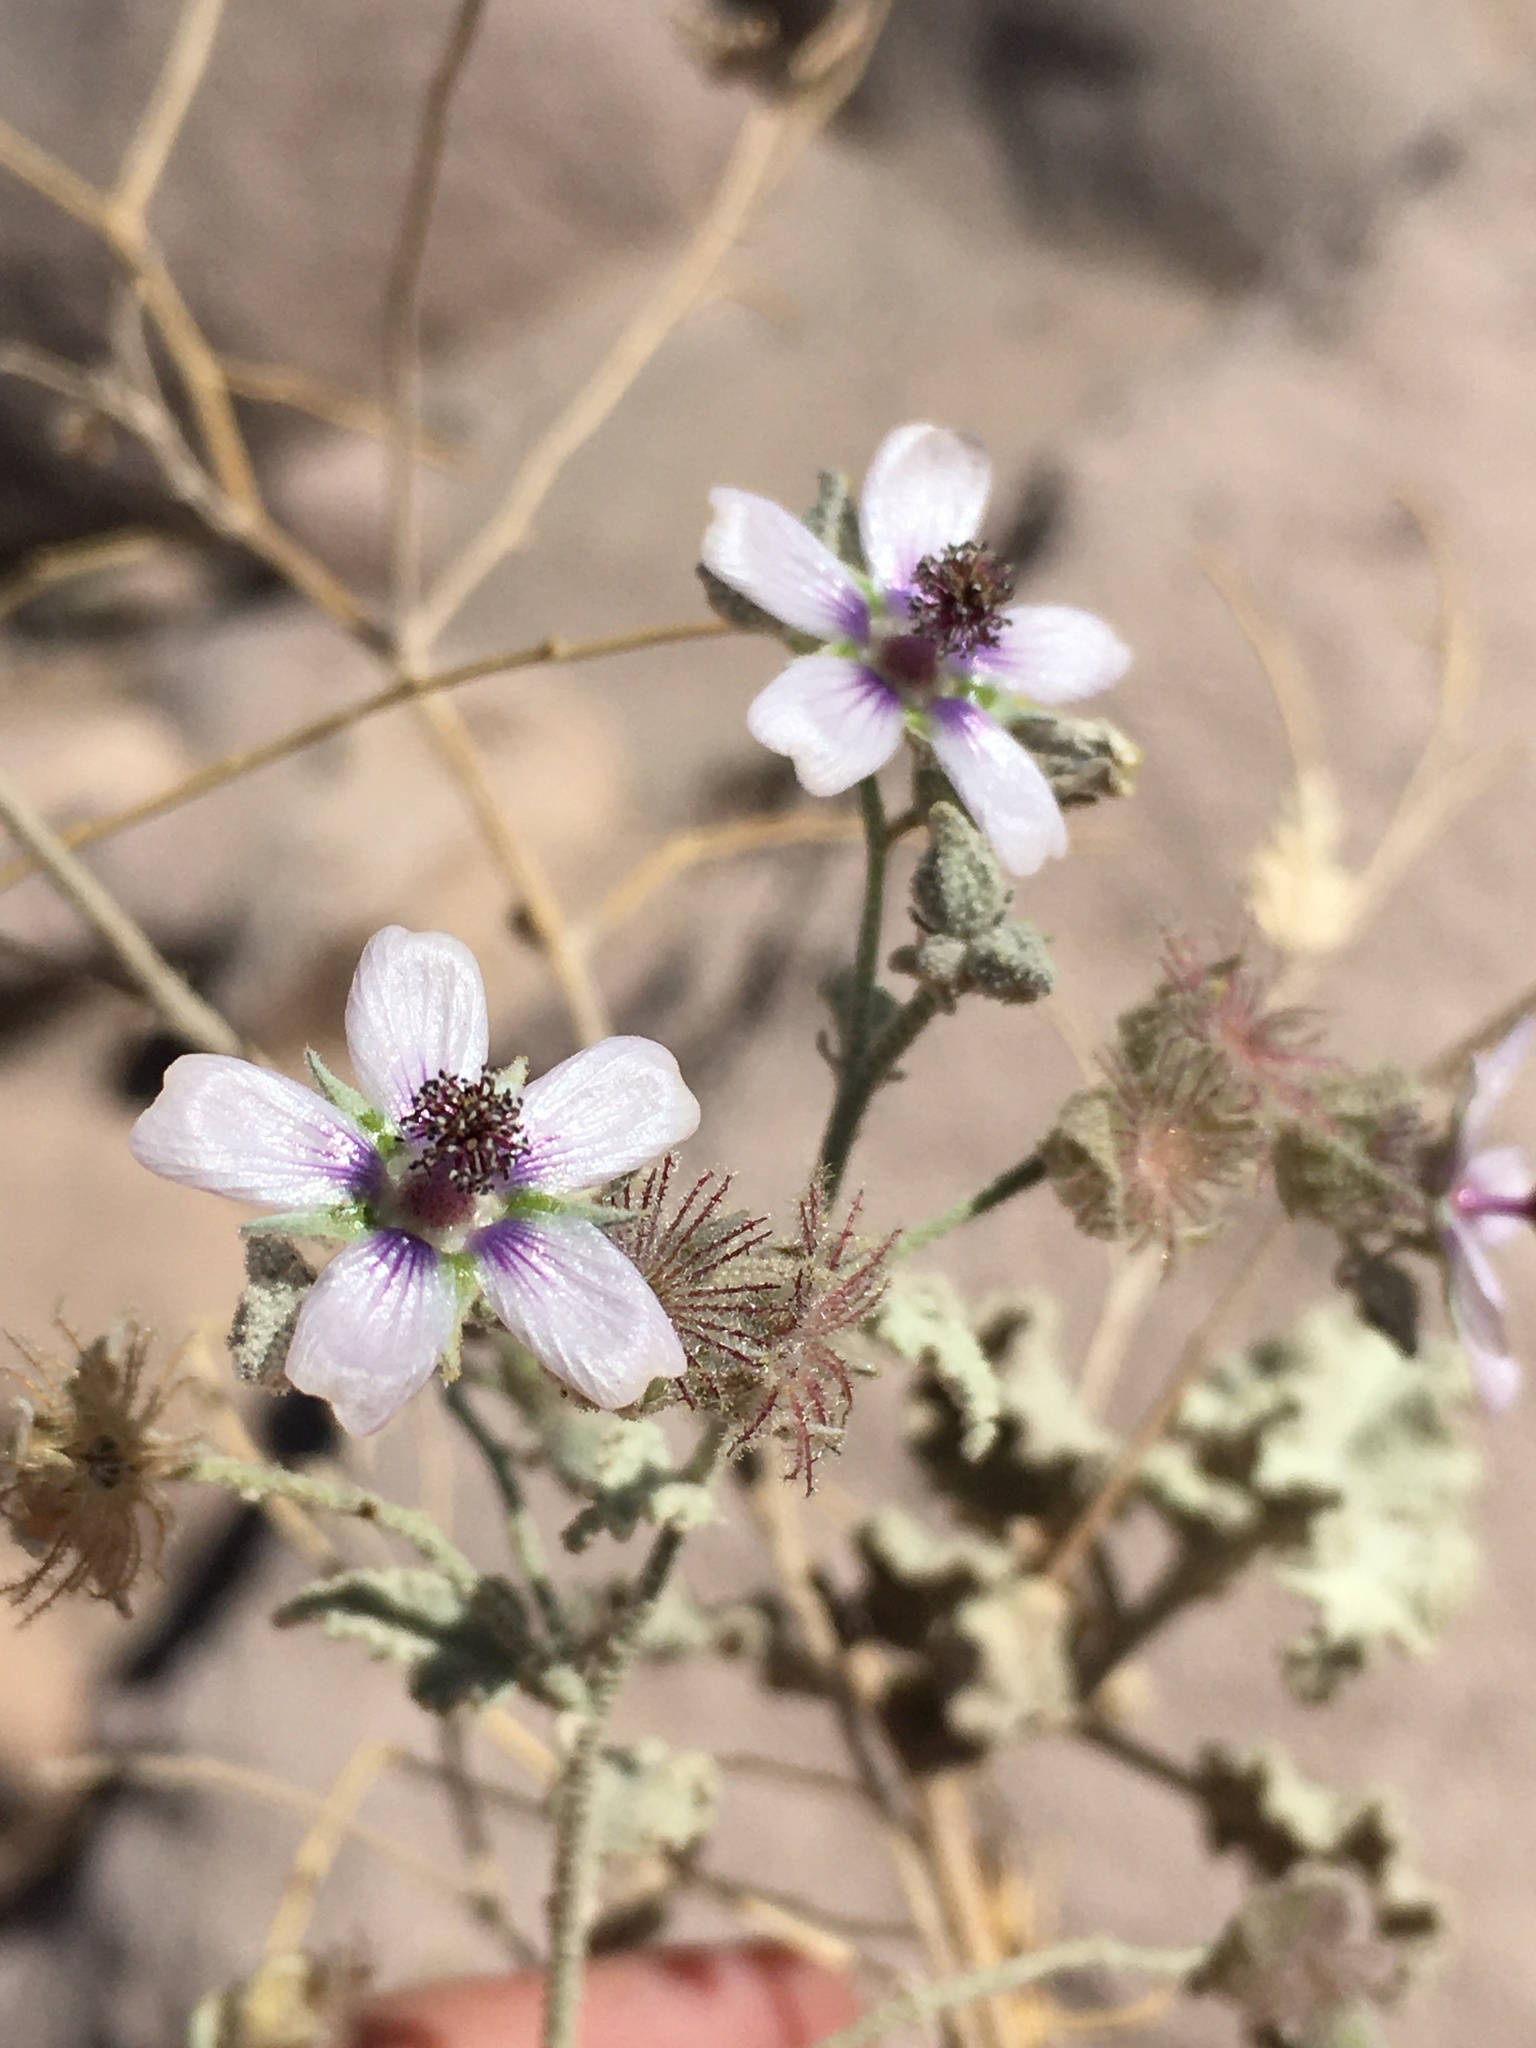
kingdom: Plantae
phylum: Tracheophyta
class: Magnoliopsida
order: Malvales
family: Malvaceae
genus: Tarasa
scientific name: Tarasa operculata
